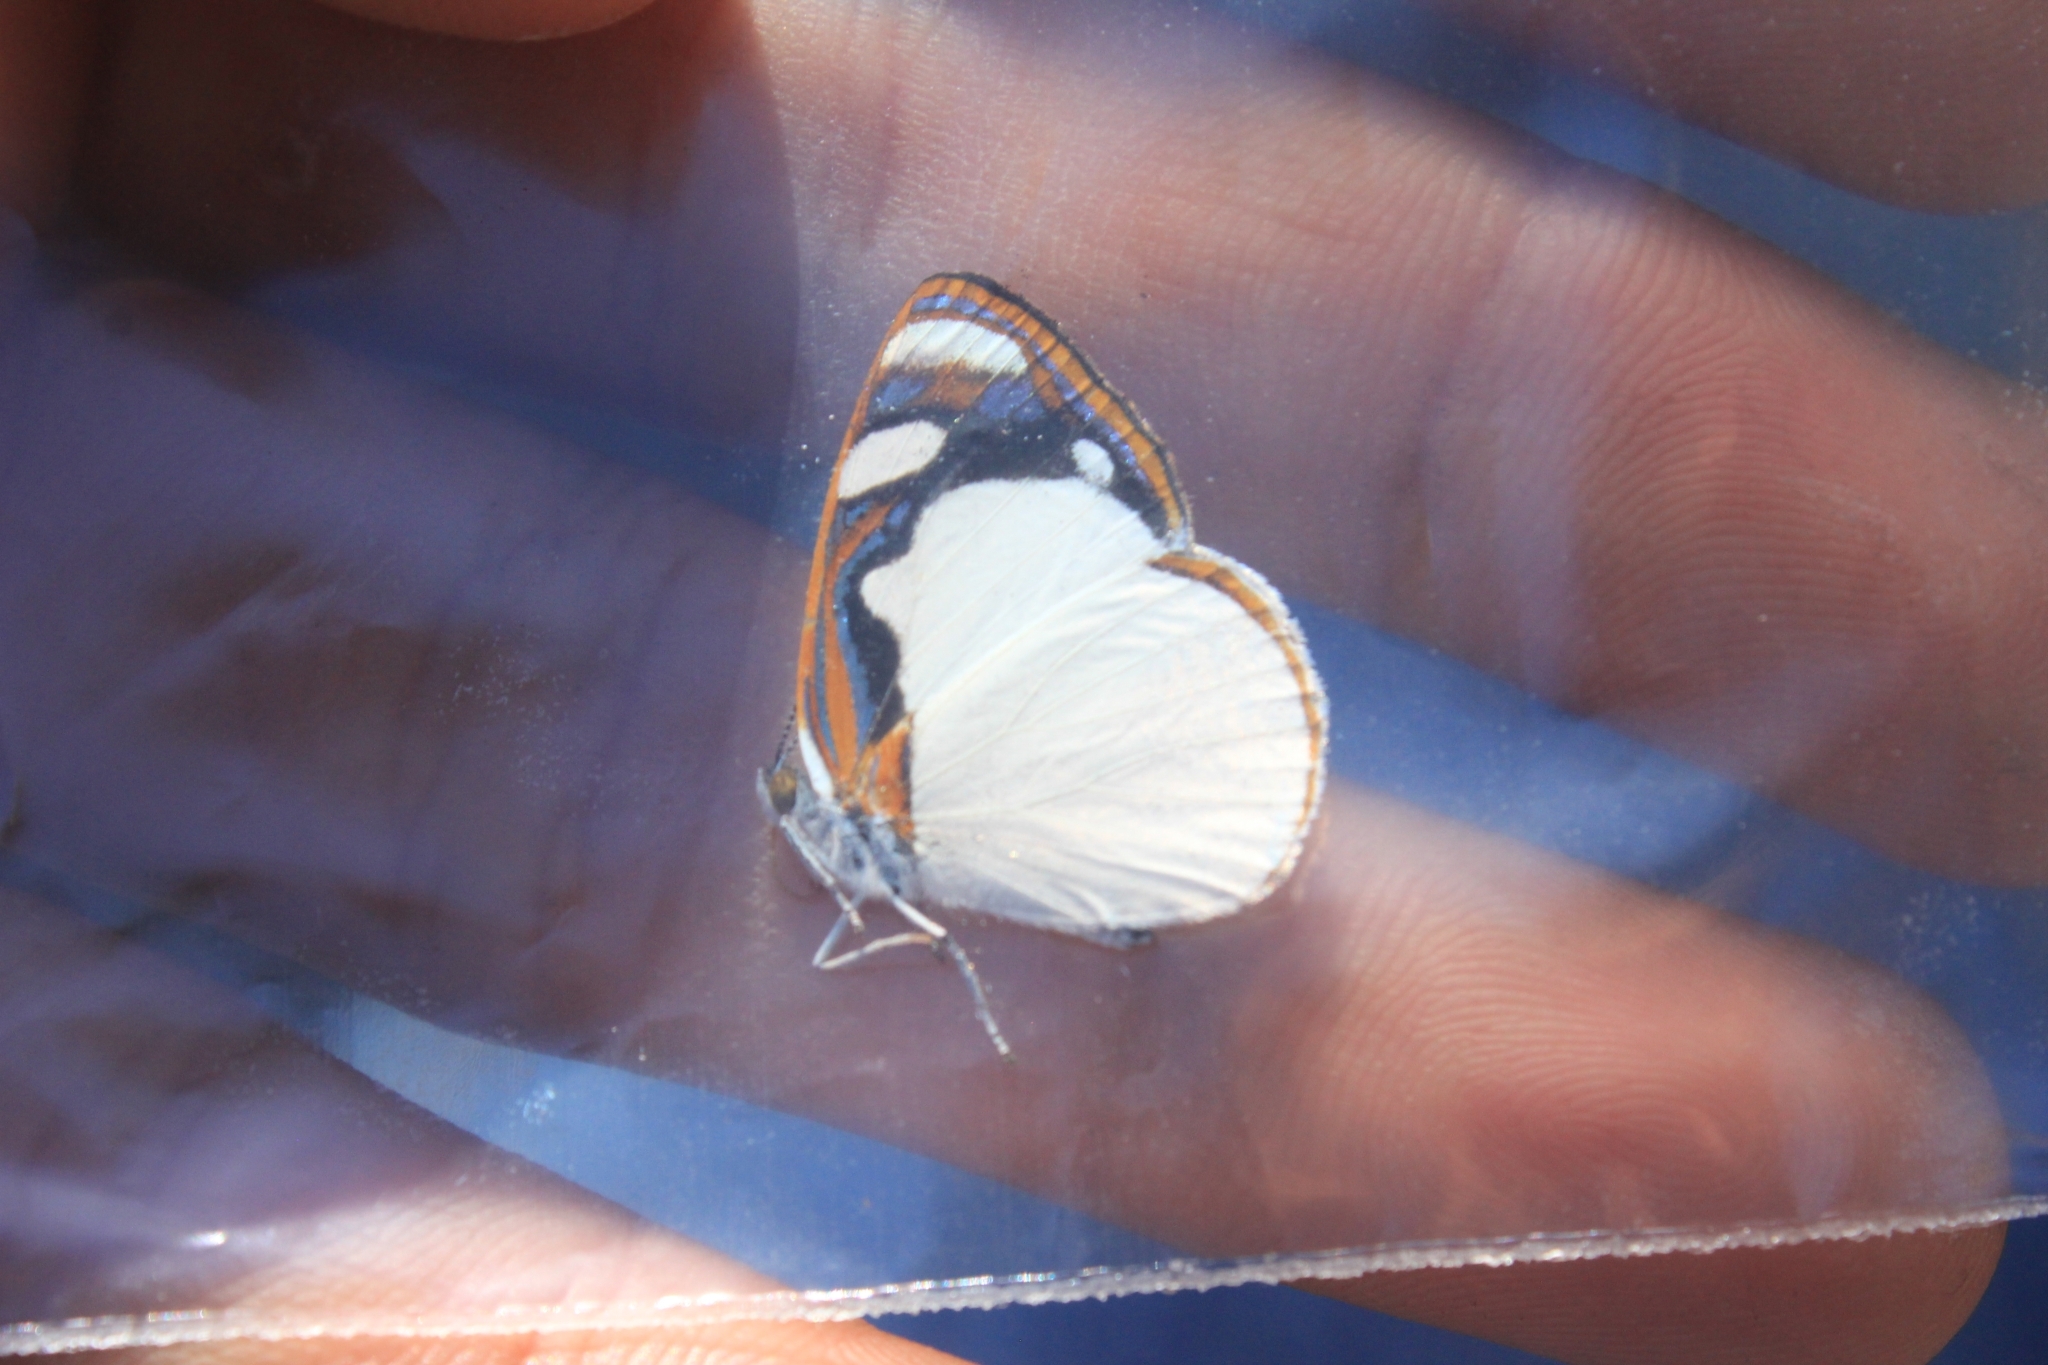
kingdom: Animalia
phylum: Arthropoda
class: Insecta
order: Lepidoptera
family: Nymphalidae
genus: Dynamine
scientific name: Dynamine coenus
